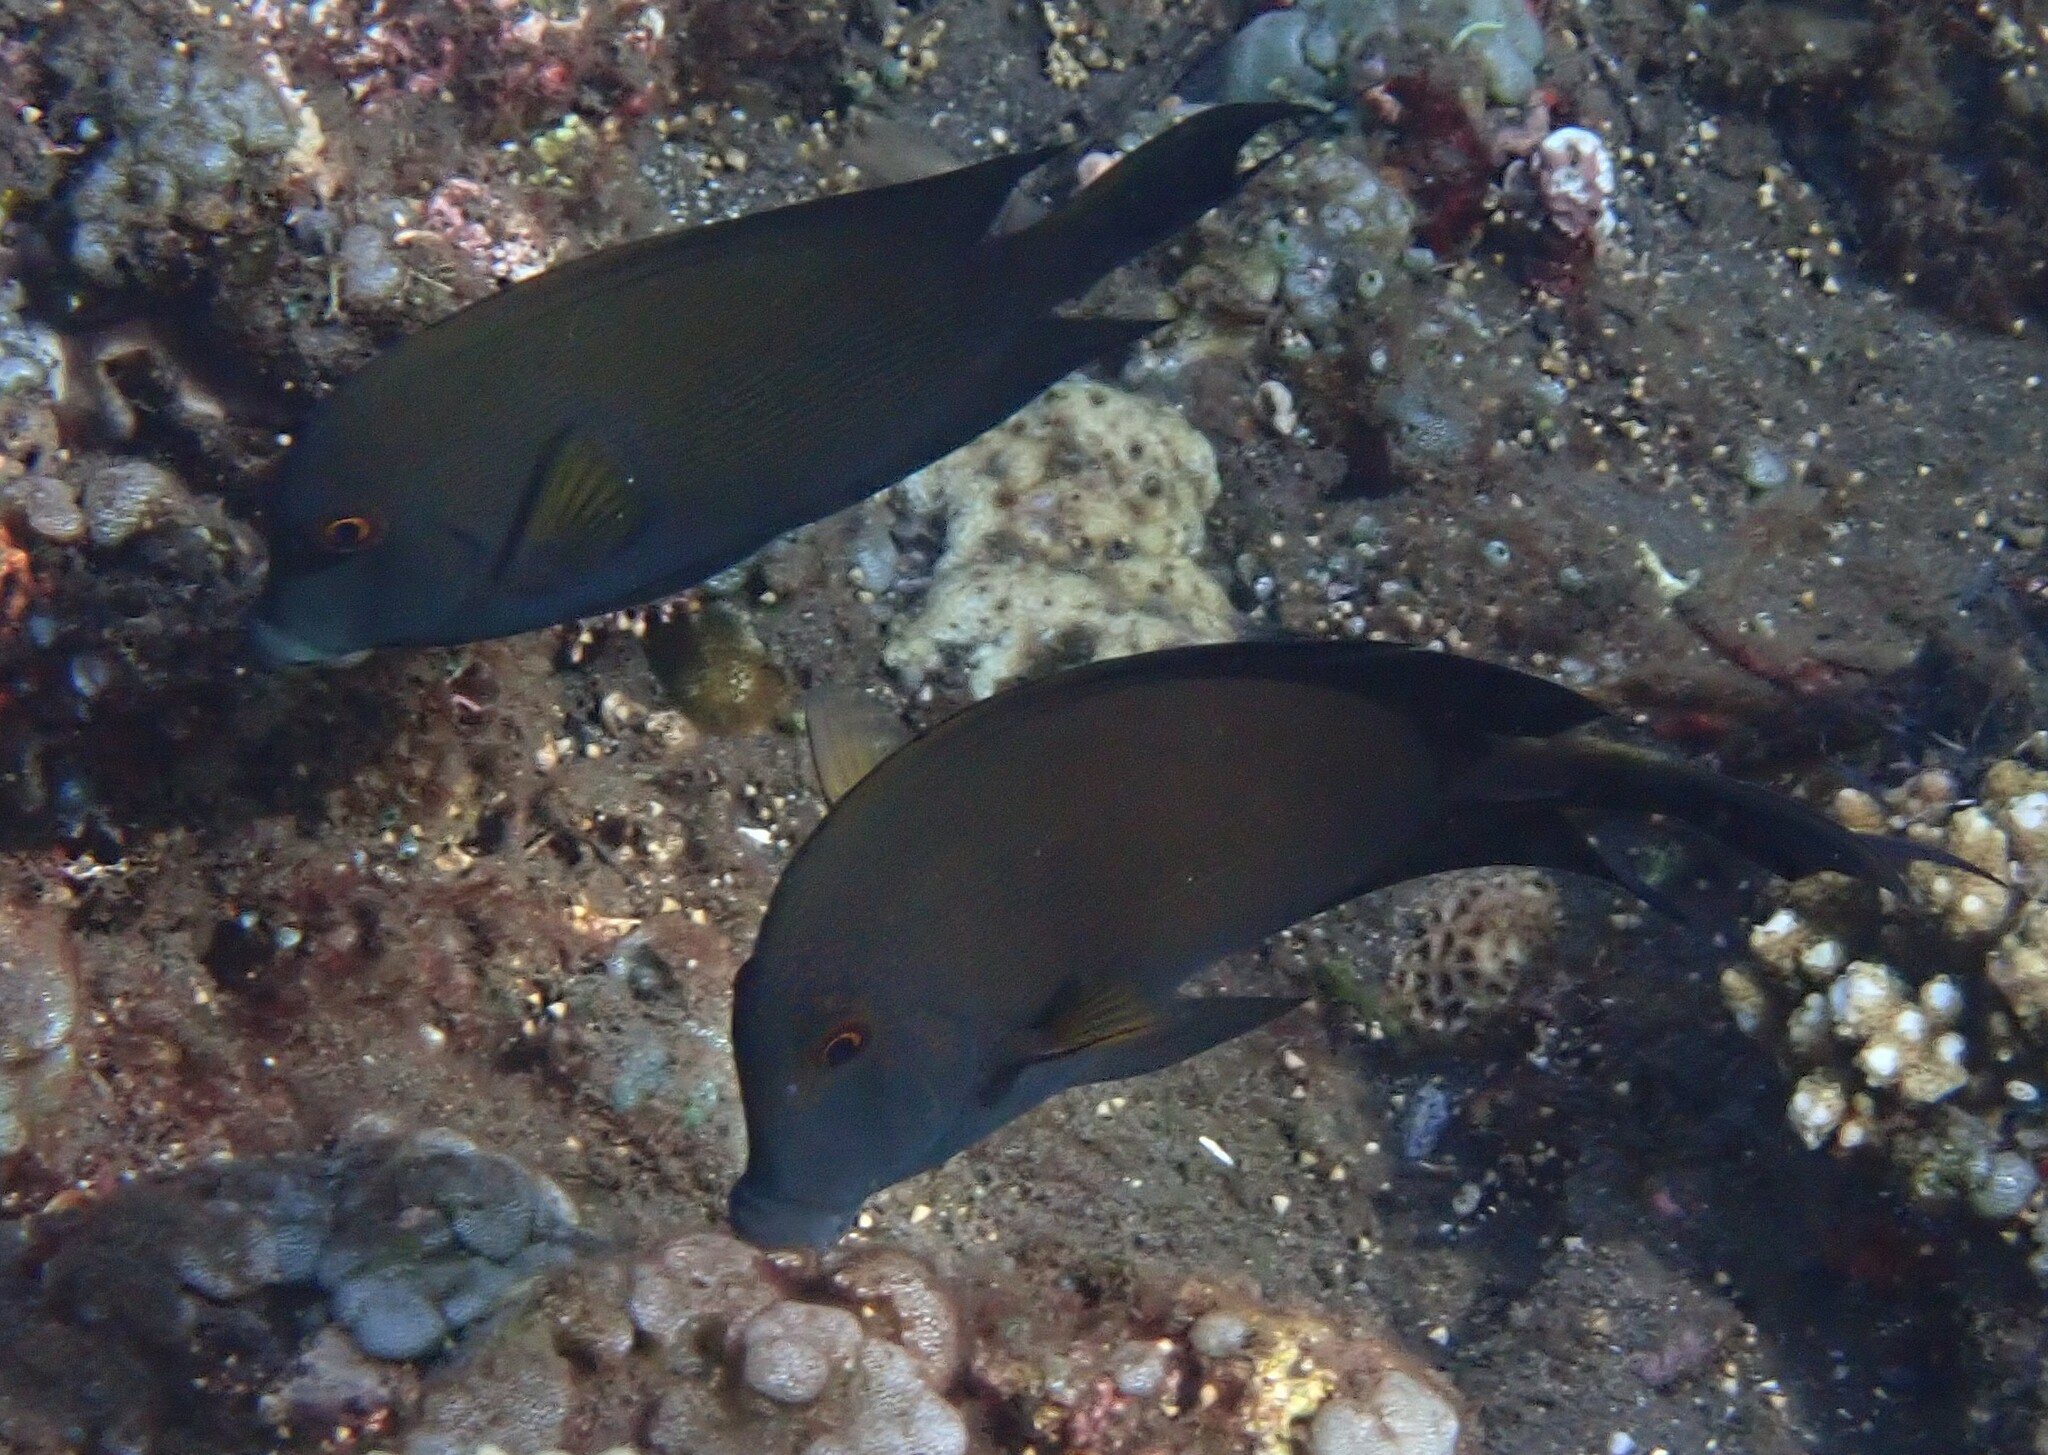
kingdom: Animalia
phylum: Chordata
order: Perciformes
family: Acanthuridae
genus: Ctenochaetus
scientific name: Ctenochaetus striatus
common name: Bristle-toothed surgeonfish
